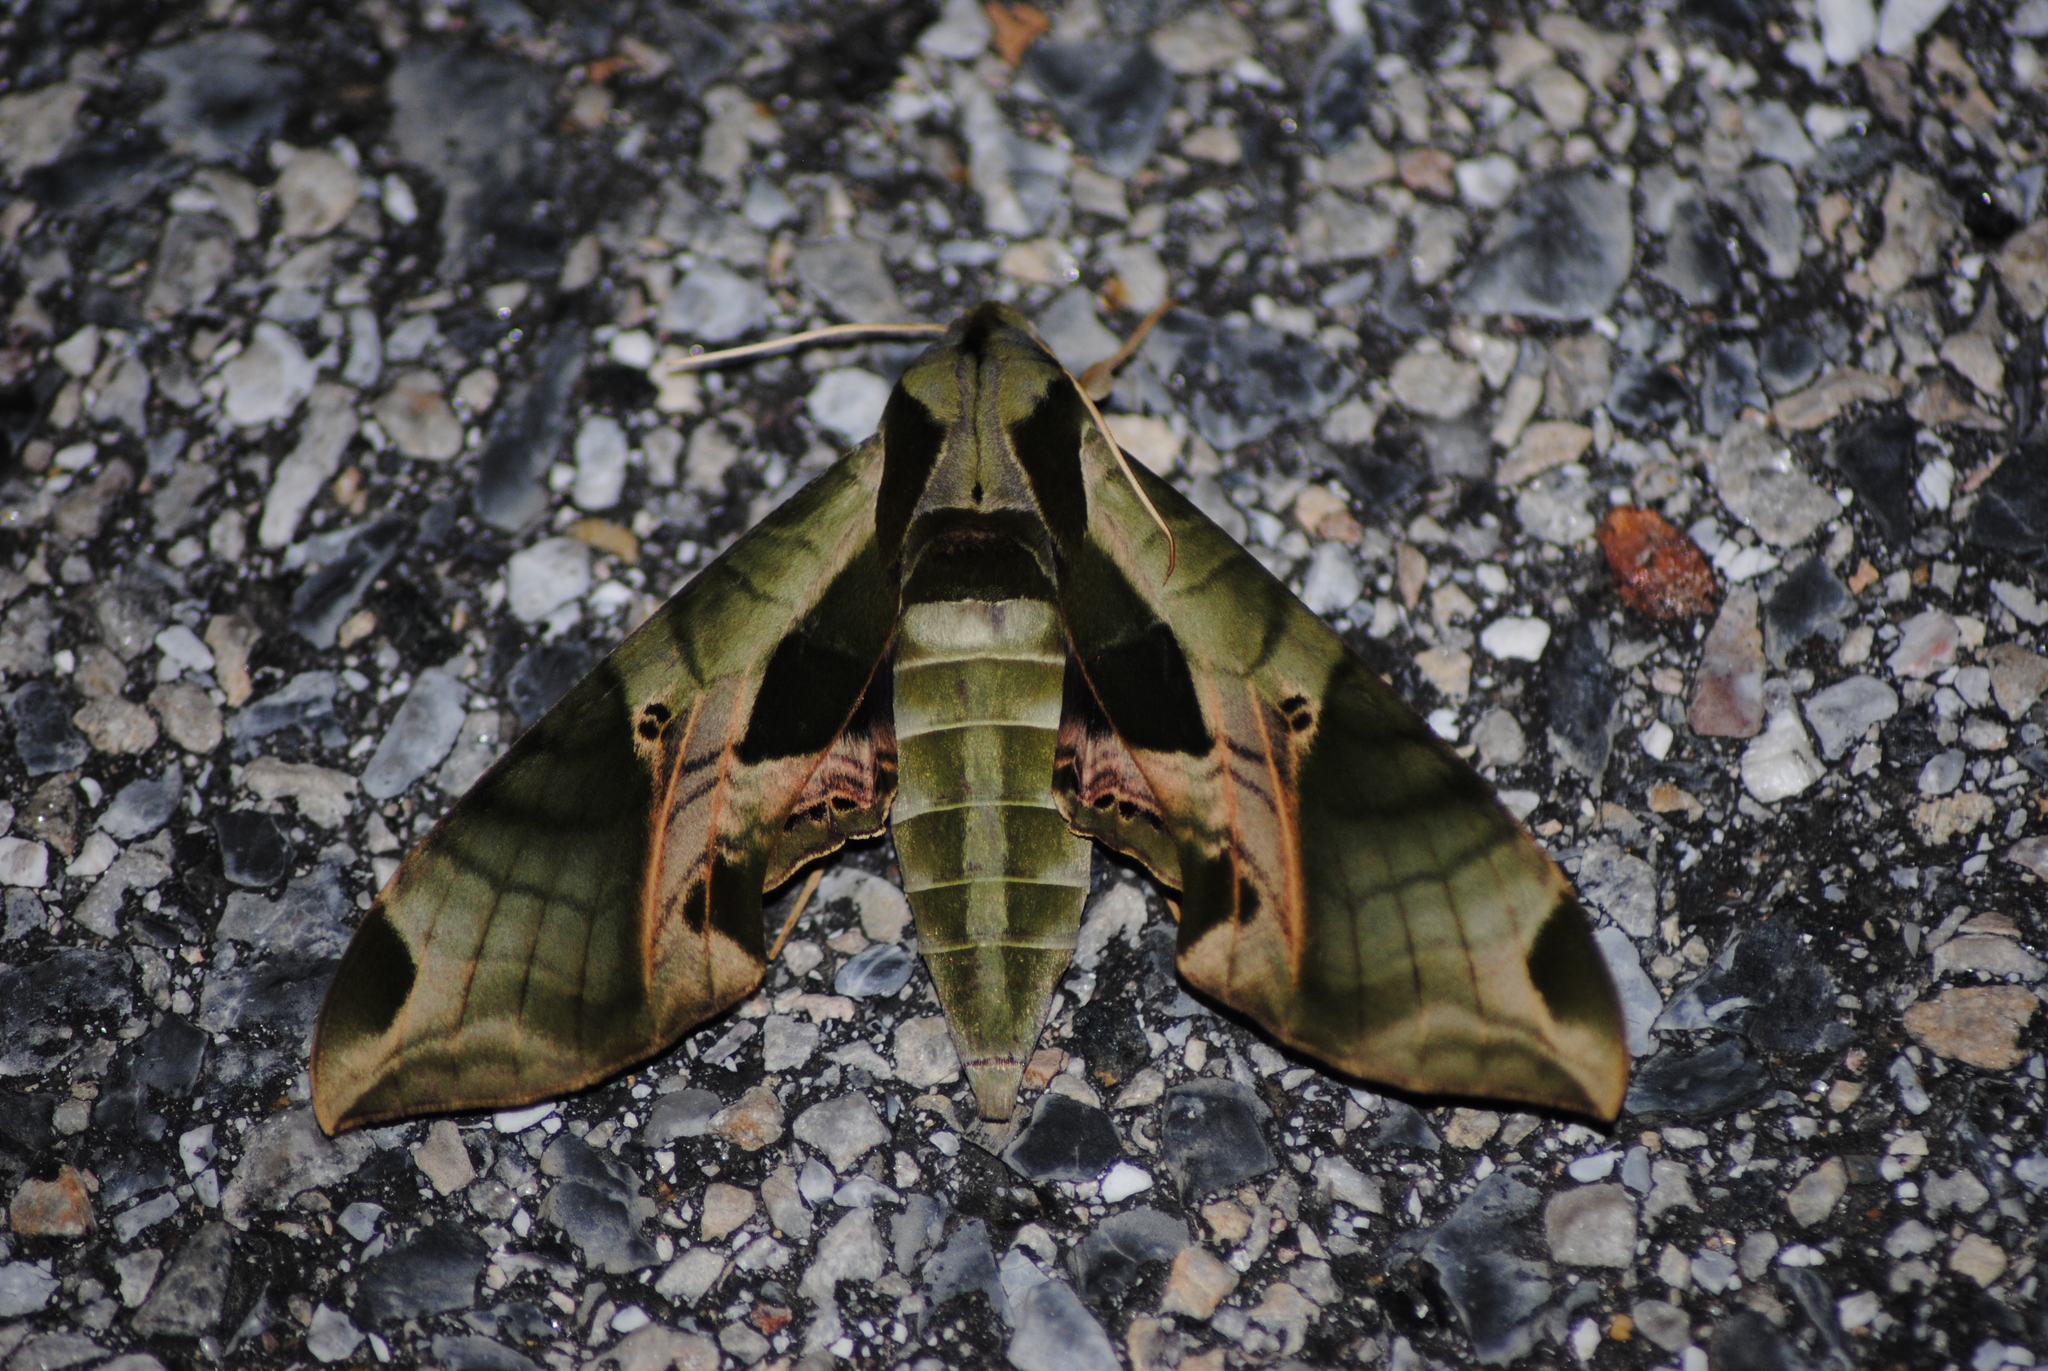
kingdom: Animalia
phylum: Arthropoda
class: Insecta
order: Lepidoptera
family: Sphingidae
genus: Eumorpha
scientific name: Eumorpha pandorus
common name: Pandora sphinx
